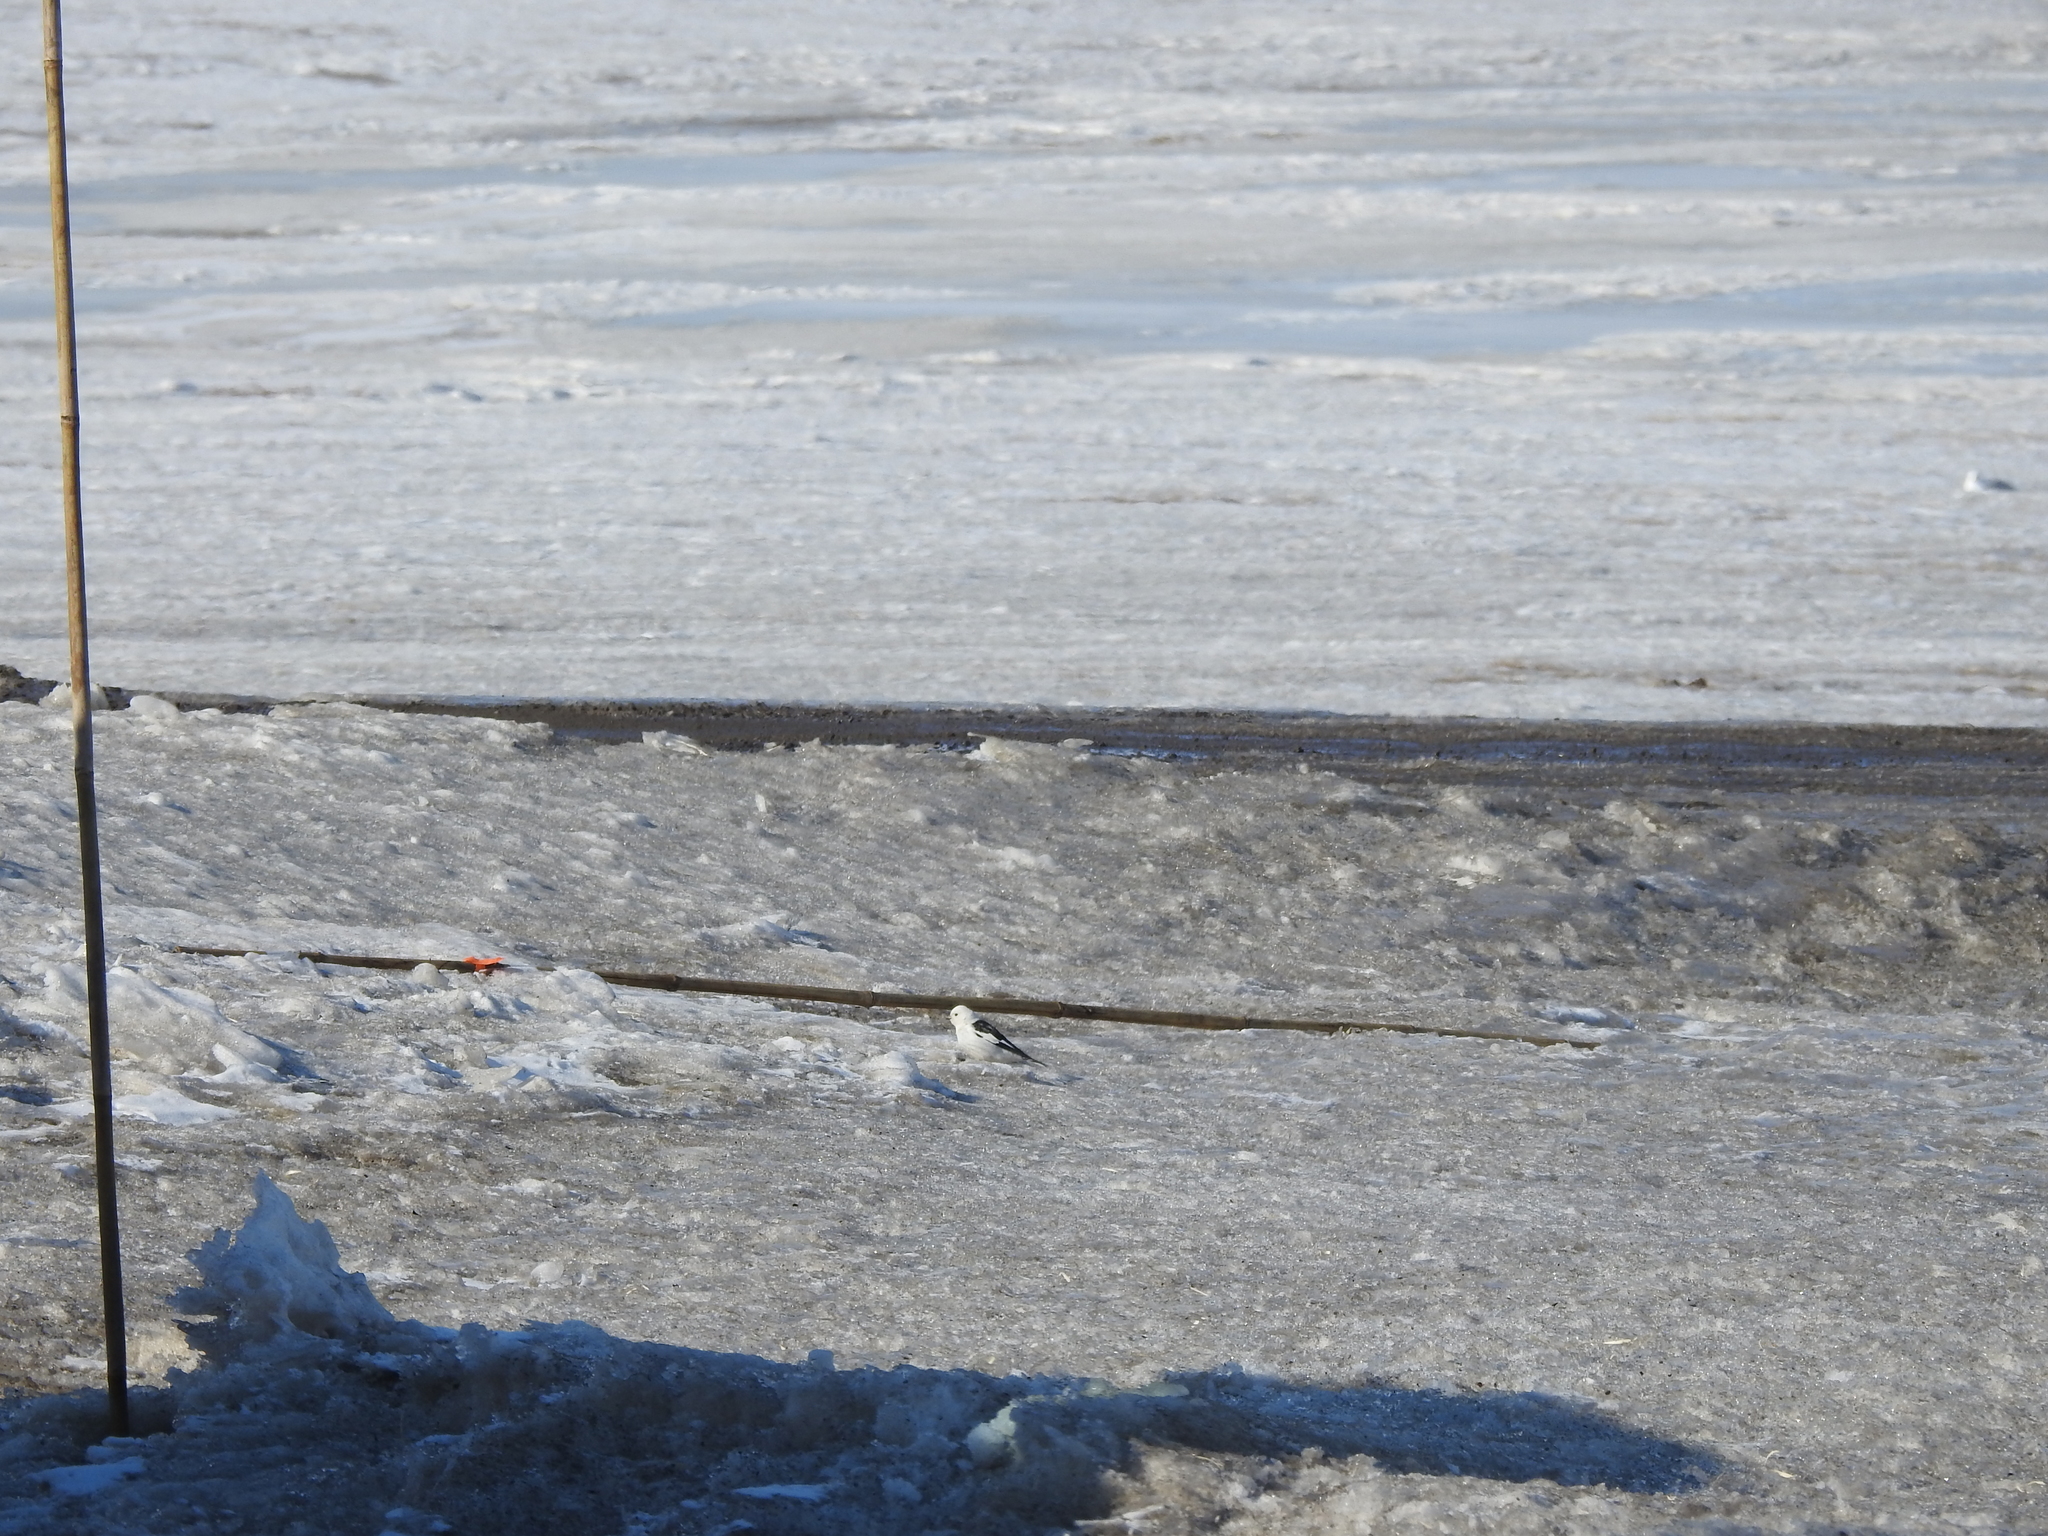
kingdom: Animalia
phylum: Chordata
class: Aves
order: Passeriformes
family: Calcariidae
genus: Plectrophenax
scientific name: Plectrophenax nivalis
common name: Snow bunting
